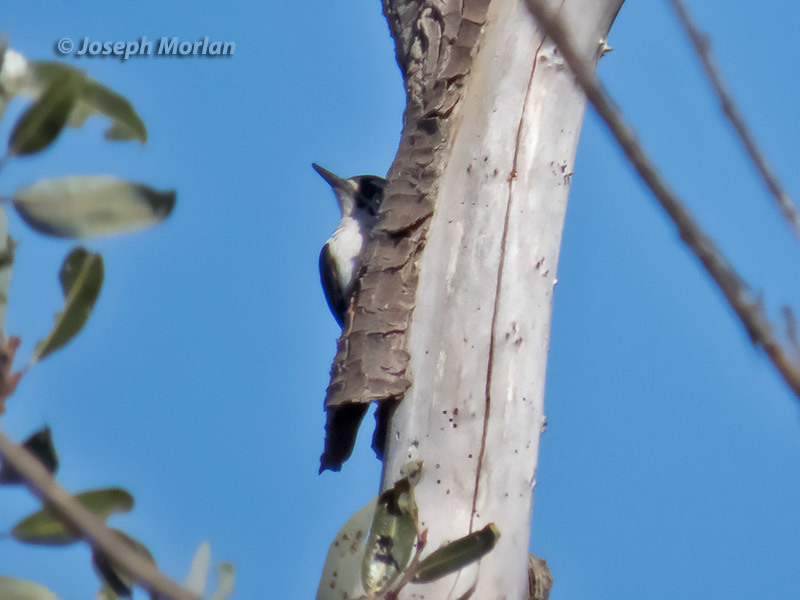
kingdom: Animalia
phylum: Chordata
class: Aves
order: Piciformes
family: Picidae
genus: Leuconotopicus
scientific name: Leuconotopicus villosus
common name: Hairy woodpecker
